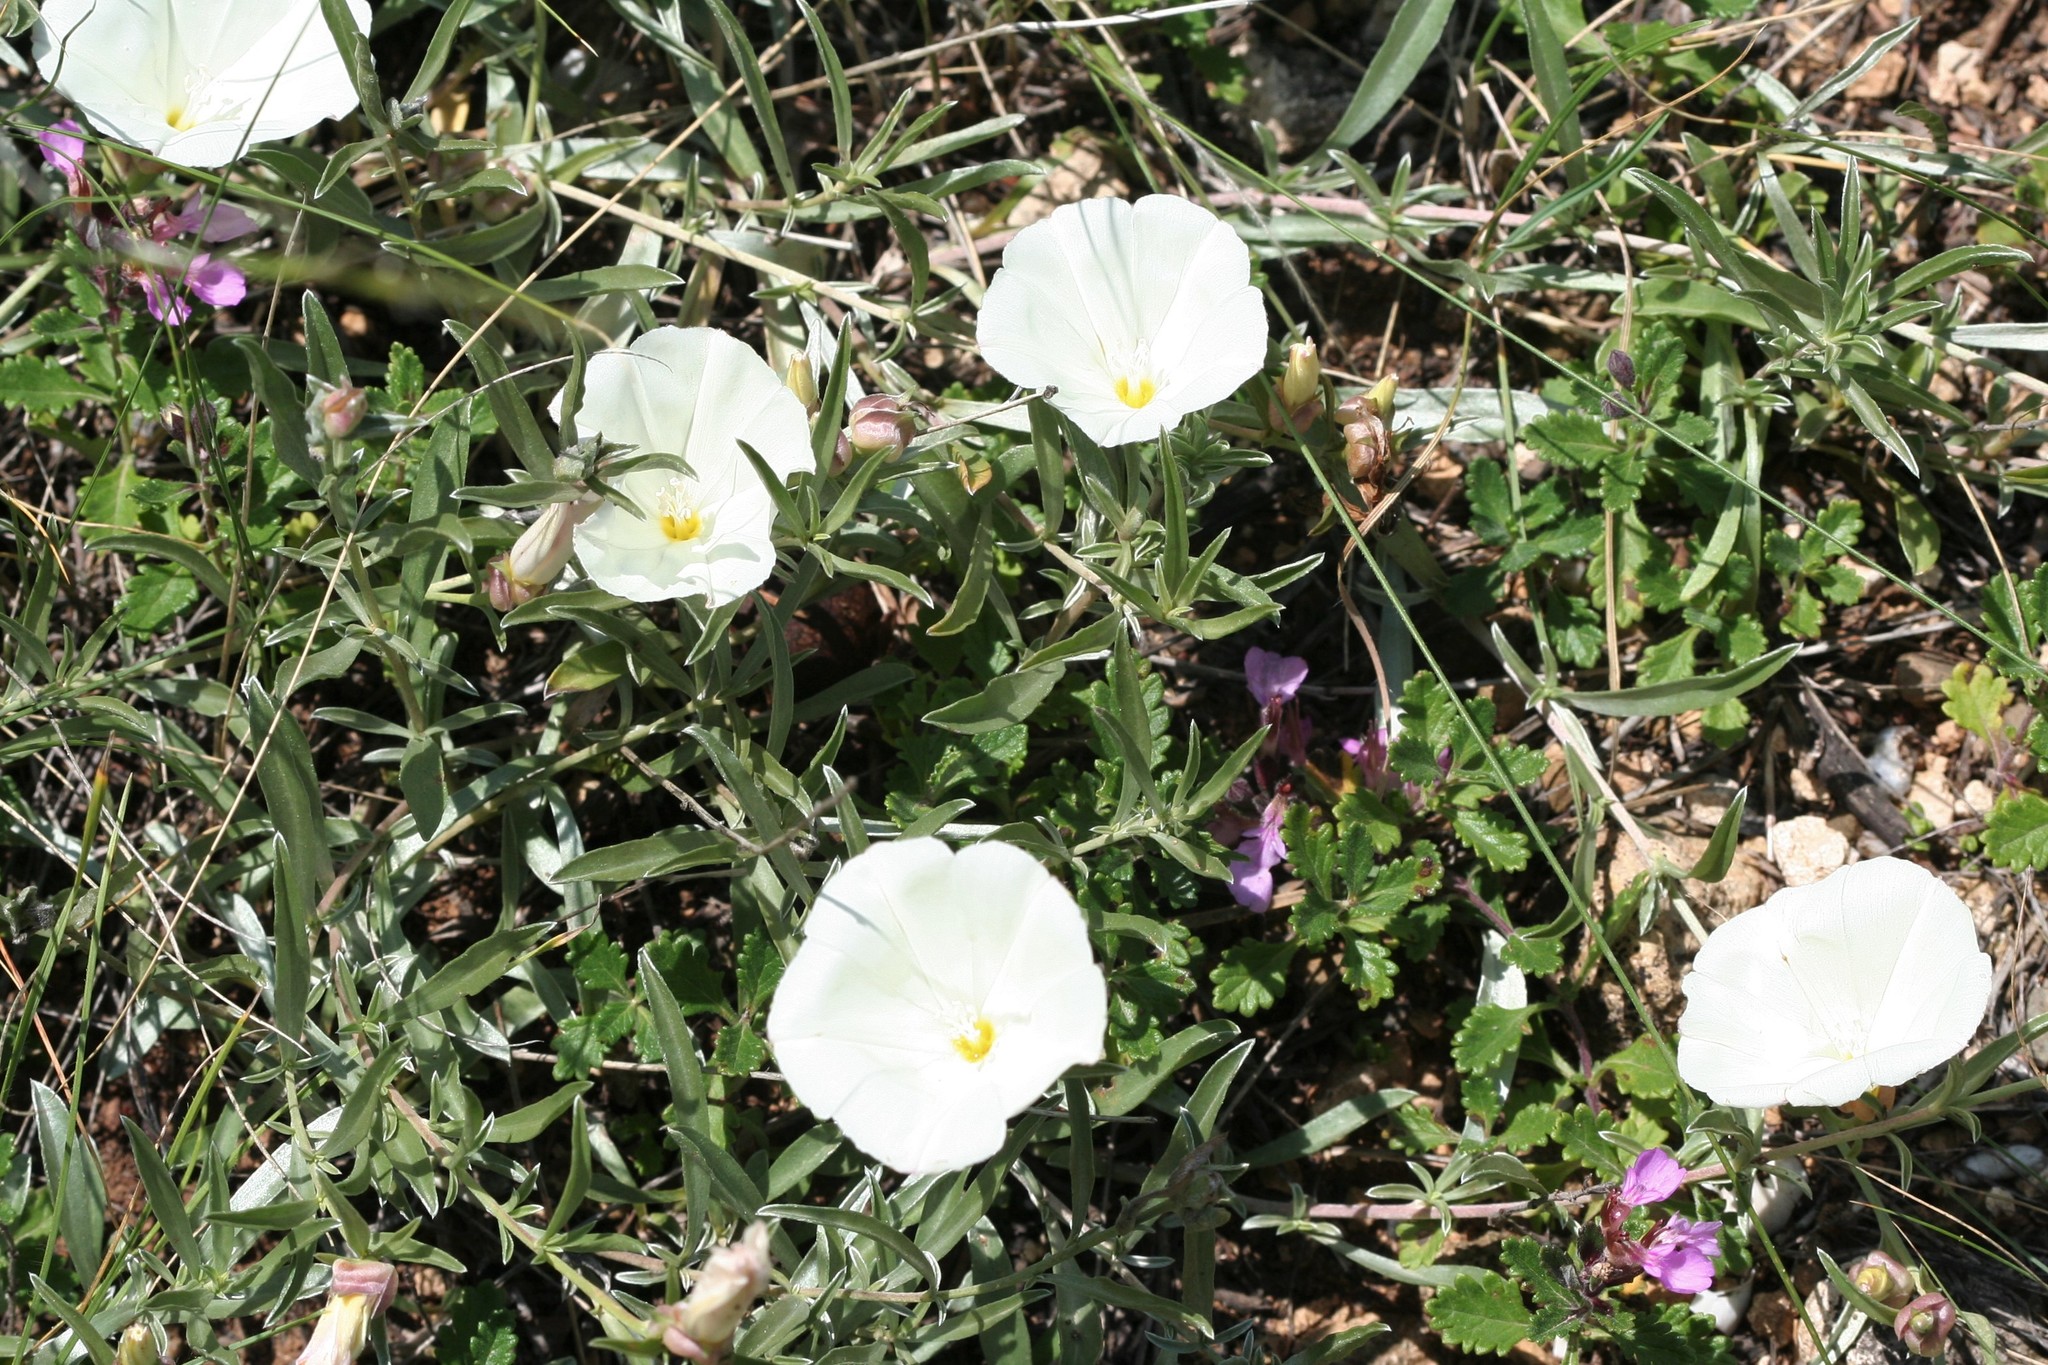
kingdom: Plantae
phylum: Tracheophyta
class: Magnoliopsida
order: Solanales
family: Convolvulaceae
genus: Convolvulus
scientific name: Convolvulus holosericeus
